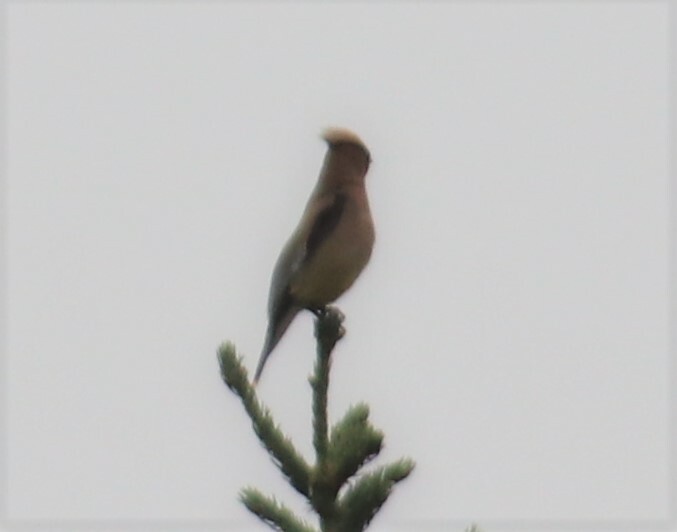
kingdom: Animalia
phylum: Chordata
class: Aves
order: Passeriformes
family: Bombycillidae
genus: Bombycilla
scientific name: Bombycilla cedrorum
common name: Cedar waxwing
